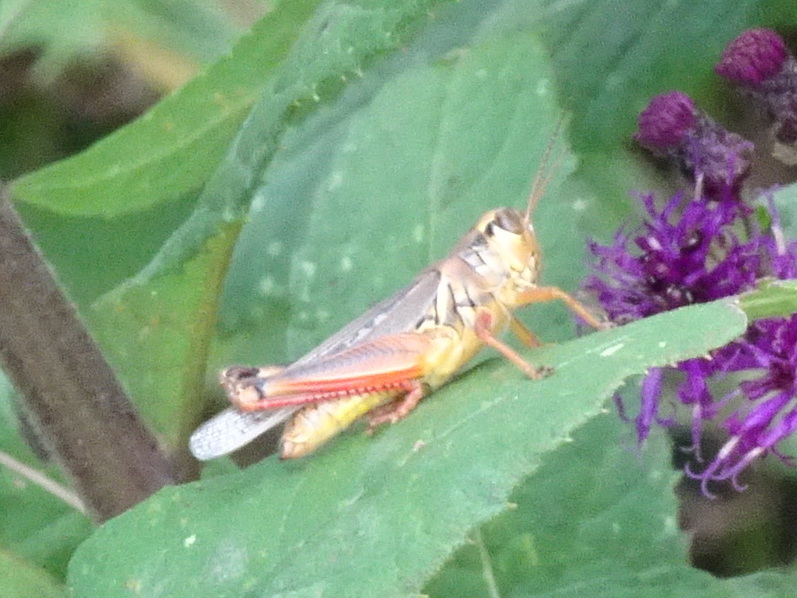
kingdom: Animalia
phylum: Arthropoda
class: Insecta
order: Orthoptera
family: Acrididae
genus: Melanoplus
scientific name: Melanoplus femurrubrum
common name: Red-legged grasshopper
